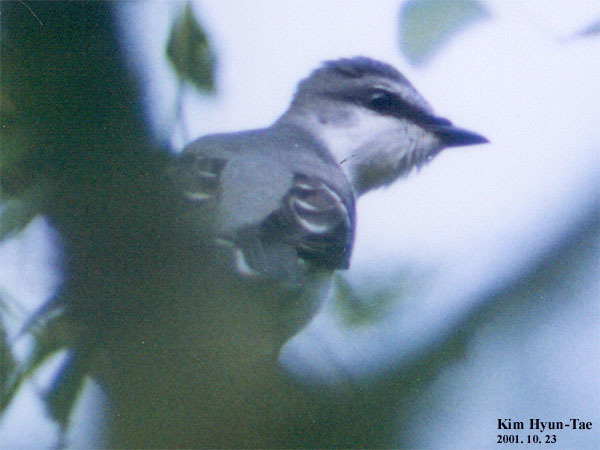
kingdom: Animalia
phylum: Chordata
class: Aves
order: Passeriformes
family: Campephagidae
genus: Pericrocotus
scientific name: Pericrocotus divaricatus
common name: Ashy minivet
